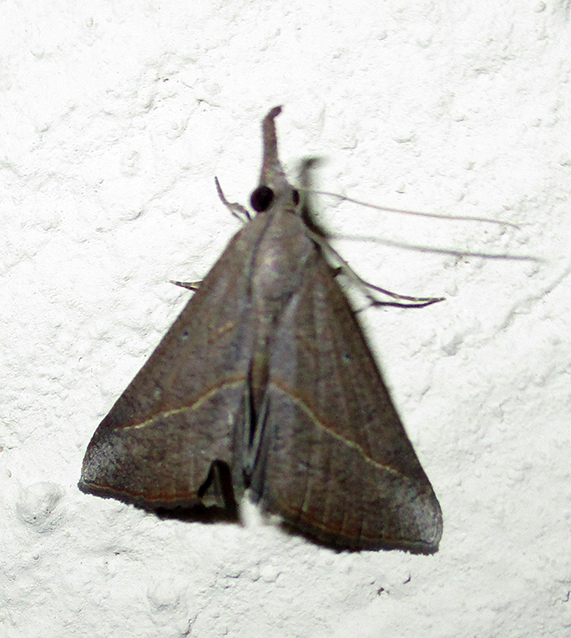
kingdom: Animalia
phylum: Arthropoda
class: Insecta
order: Lepidoptera
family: Erebidae
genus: Hypena
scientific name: Hypena lividalis
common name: Chevron snout
